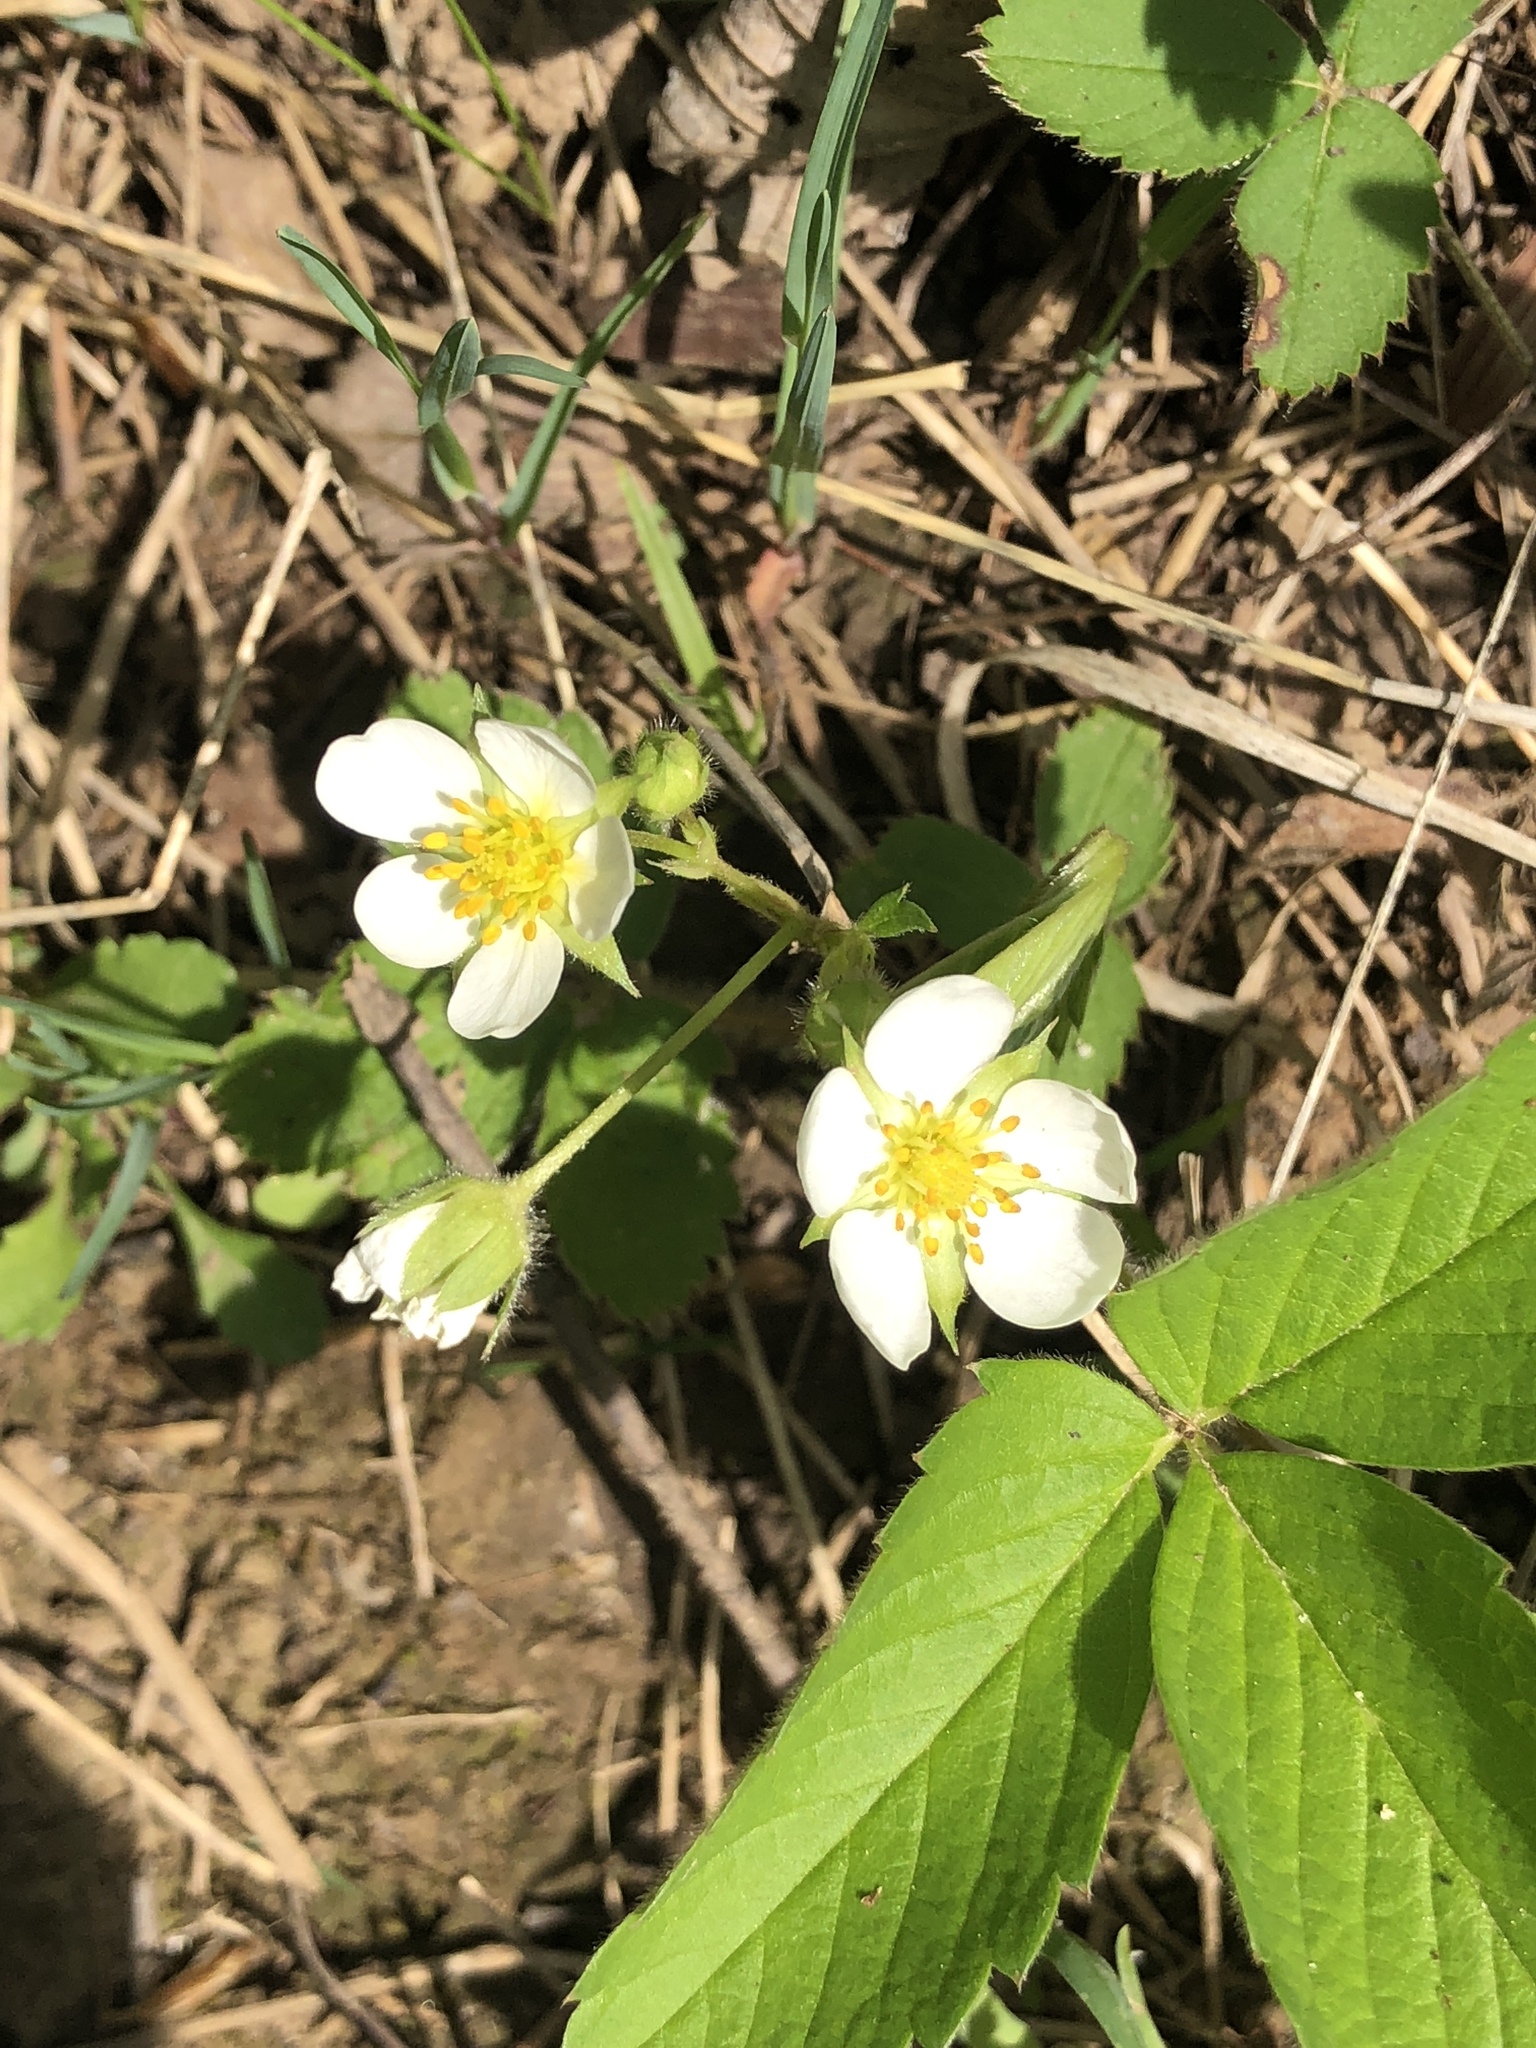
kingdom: Plantae
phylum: Tracheophyta
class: Magnoliopsida
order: Rosales
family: Rosaceae
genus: Fragaria
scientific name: Fragaria virginiana
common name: Thickleaved wild strawberry
